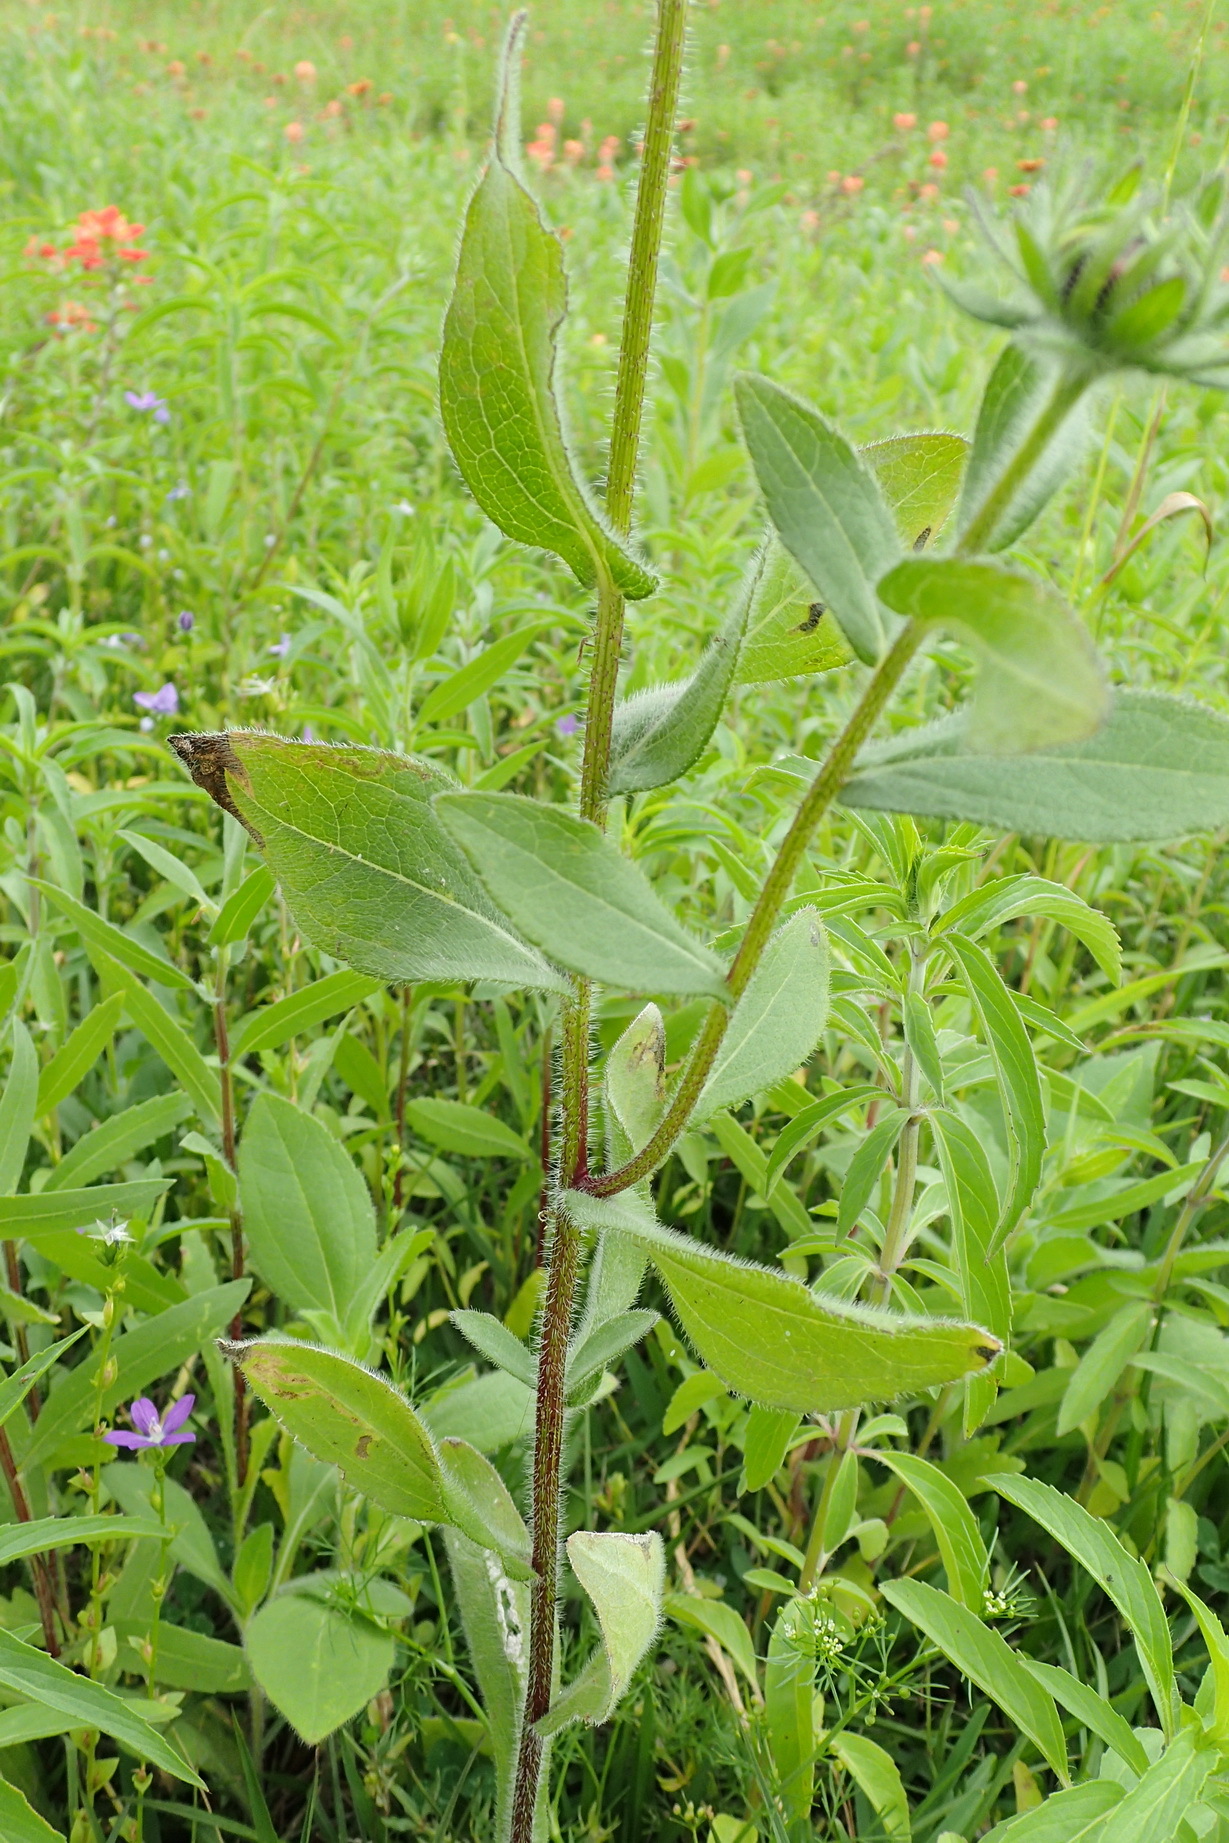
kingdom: Plantae
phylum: Tracheophyta
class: Magnoliopsida
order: Asterales
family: Asteraceae
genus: Rudbeckia
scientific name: Rudbeckia hirta
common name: Black-eyed-susan
